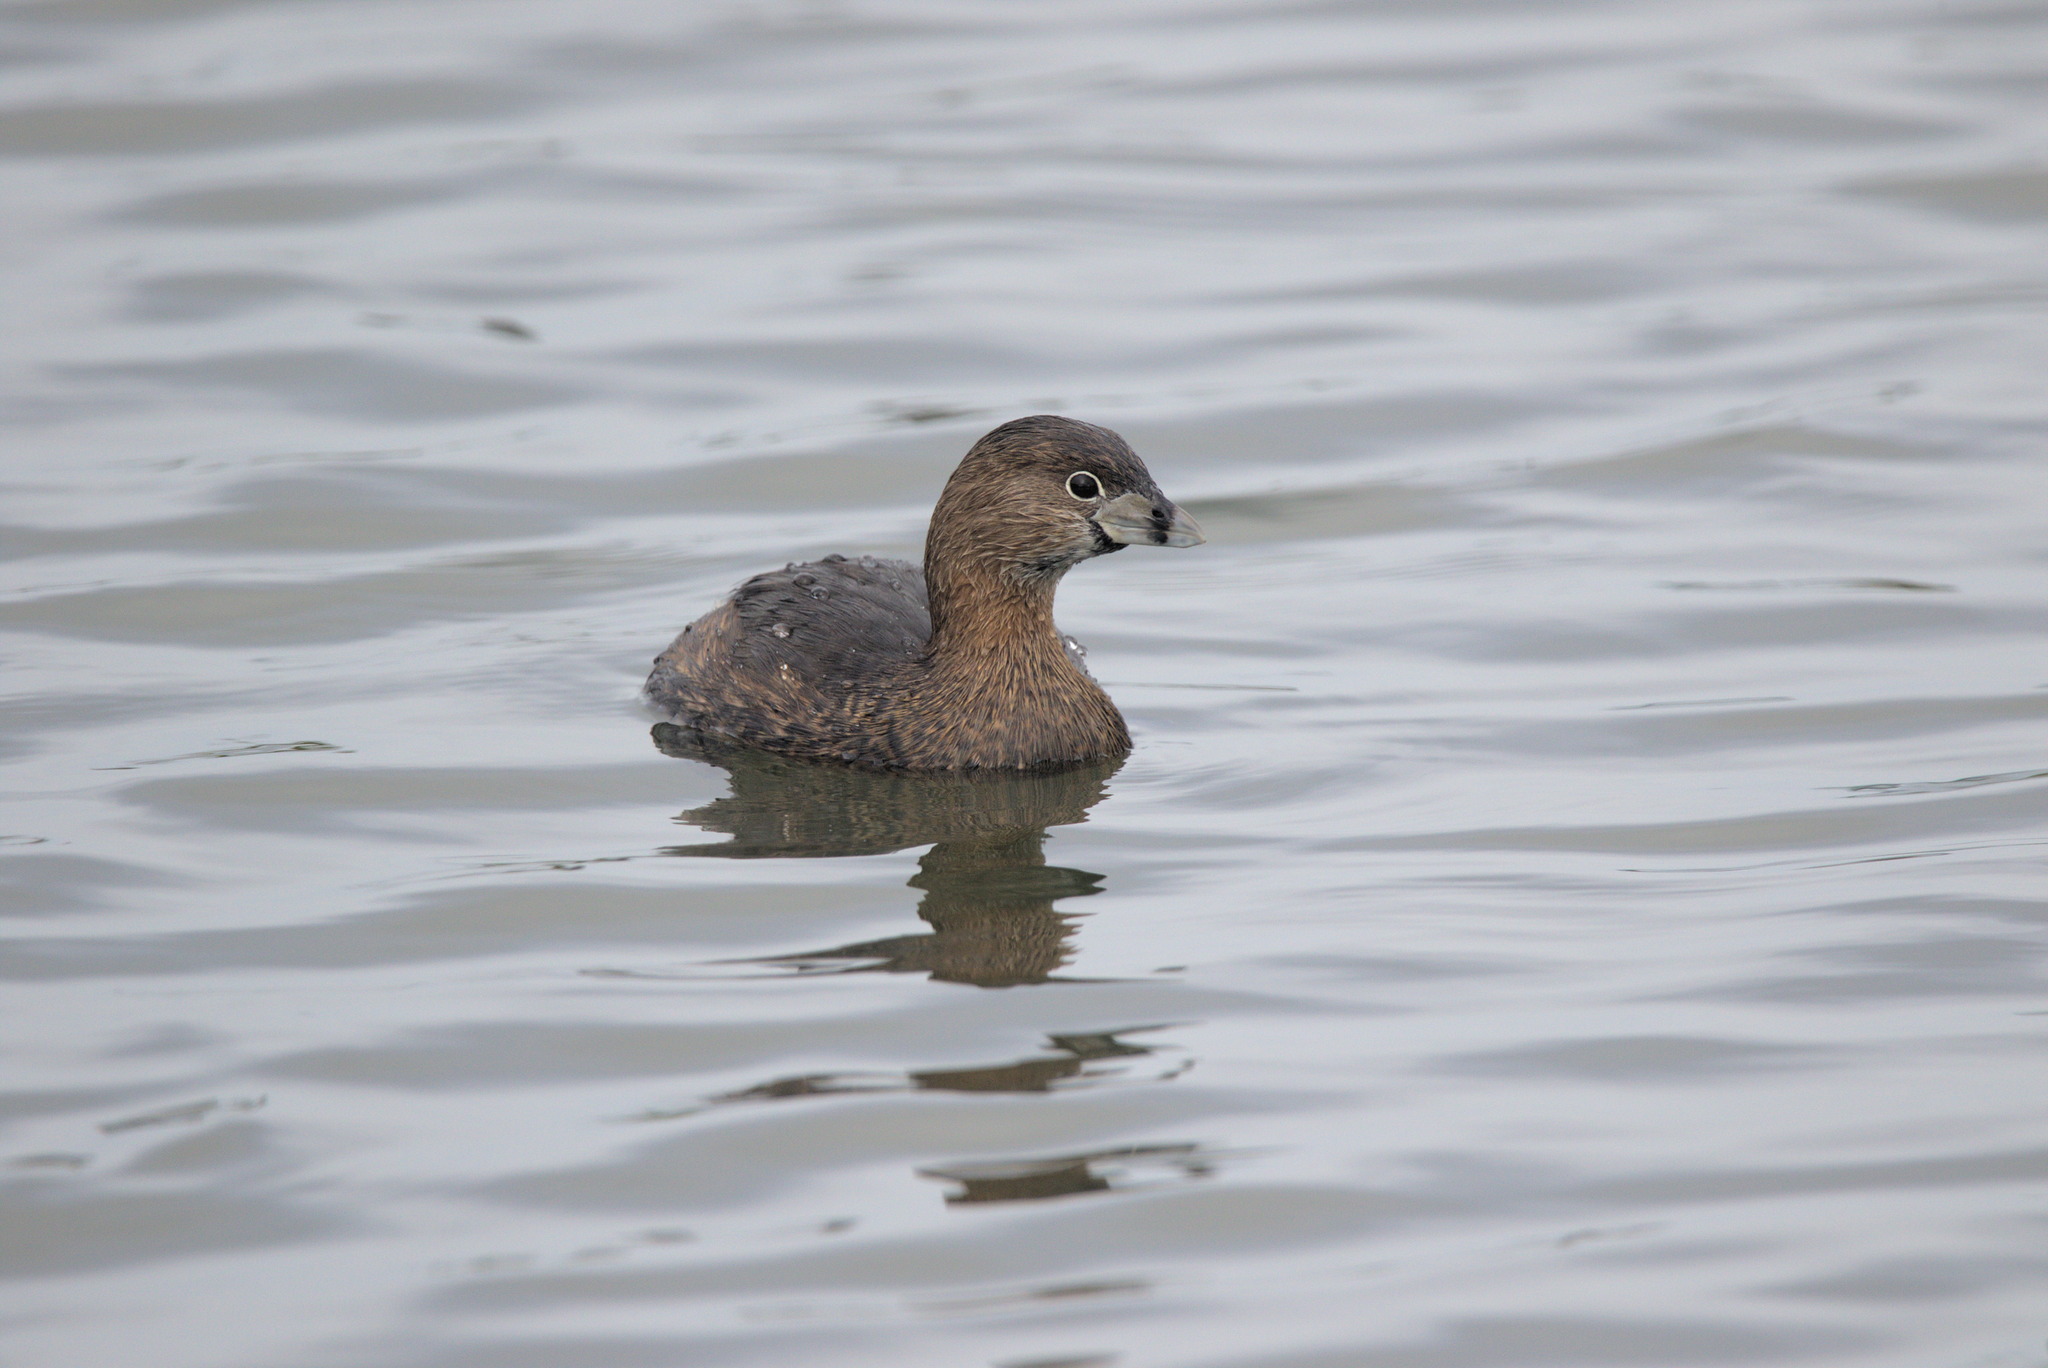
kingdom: Animalia
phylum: Chordata
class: Aves
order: Podicipediformes
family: Podicipedidae
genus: Podilymbus
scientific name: Podilymbus podiceps
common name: Pied-billed grebe
